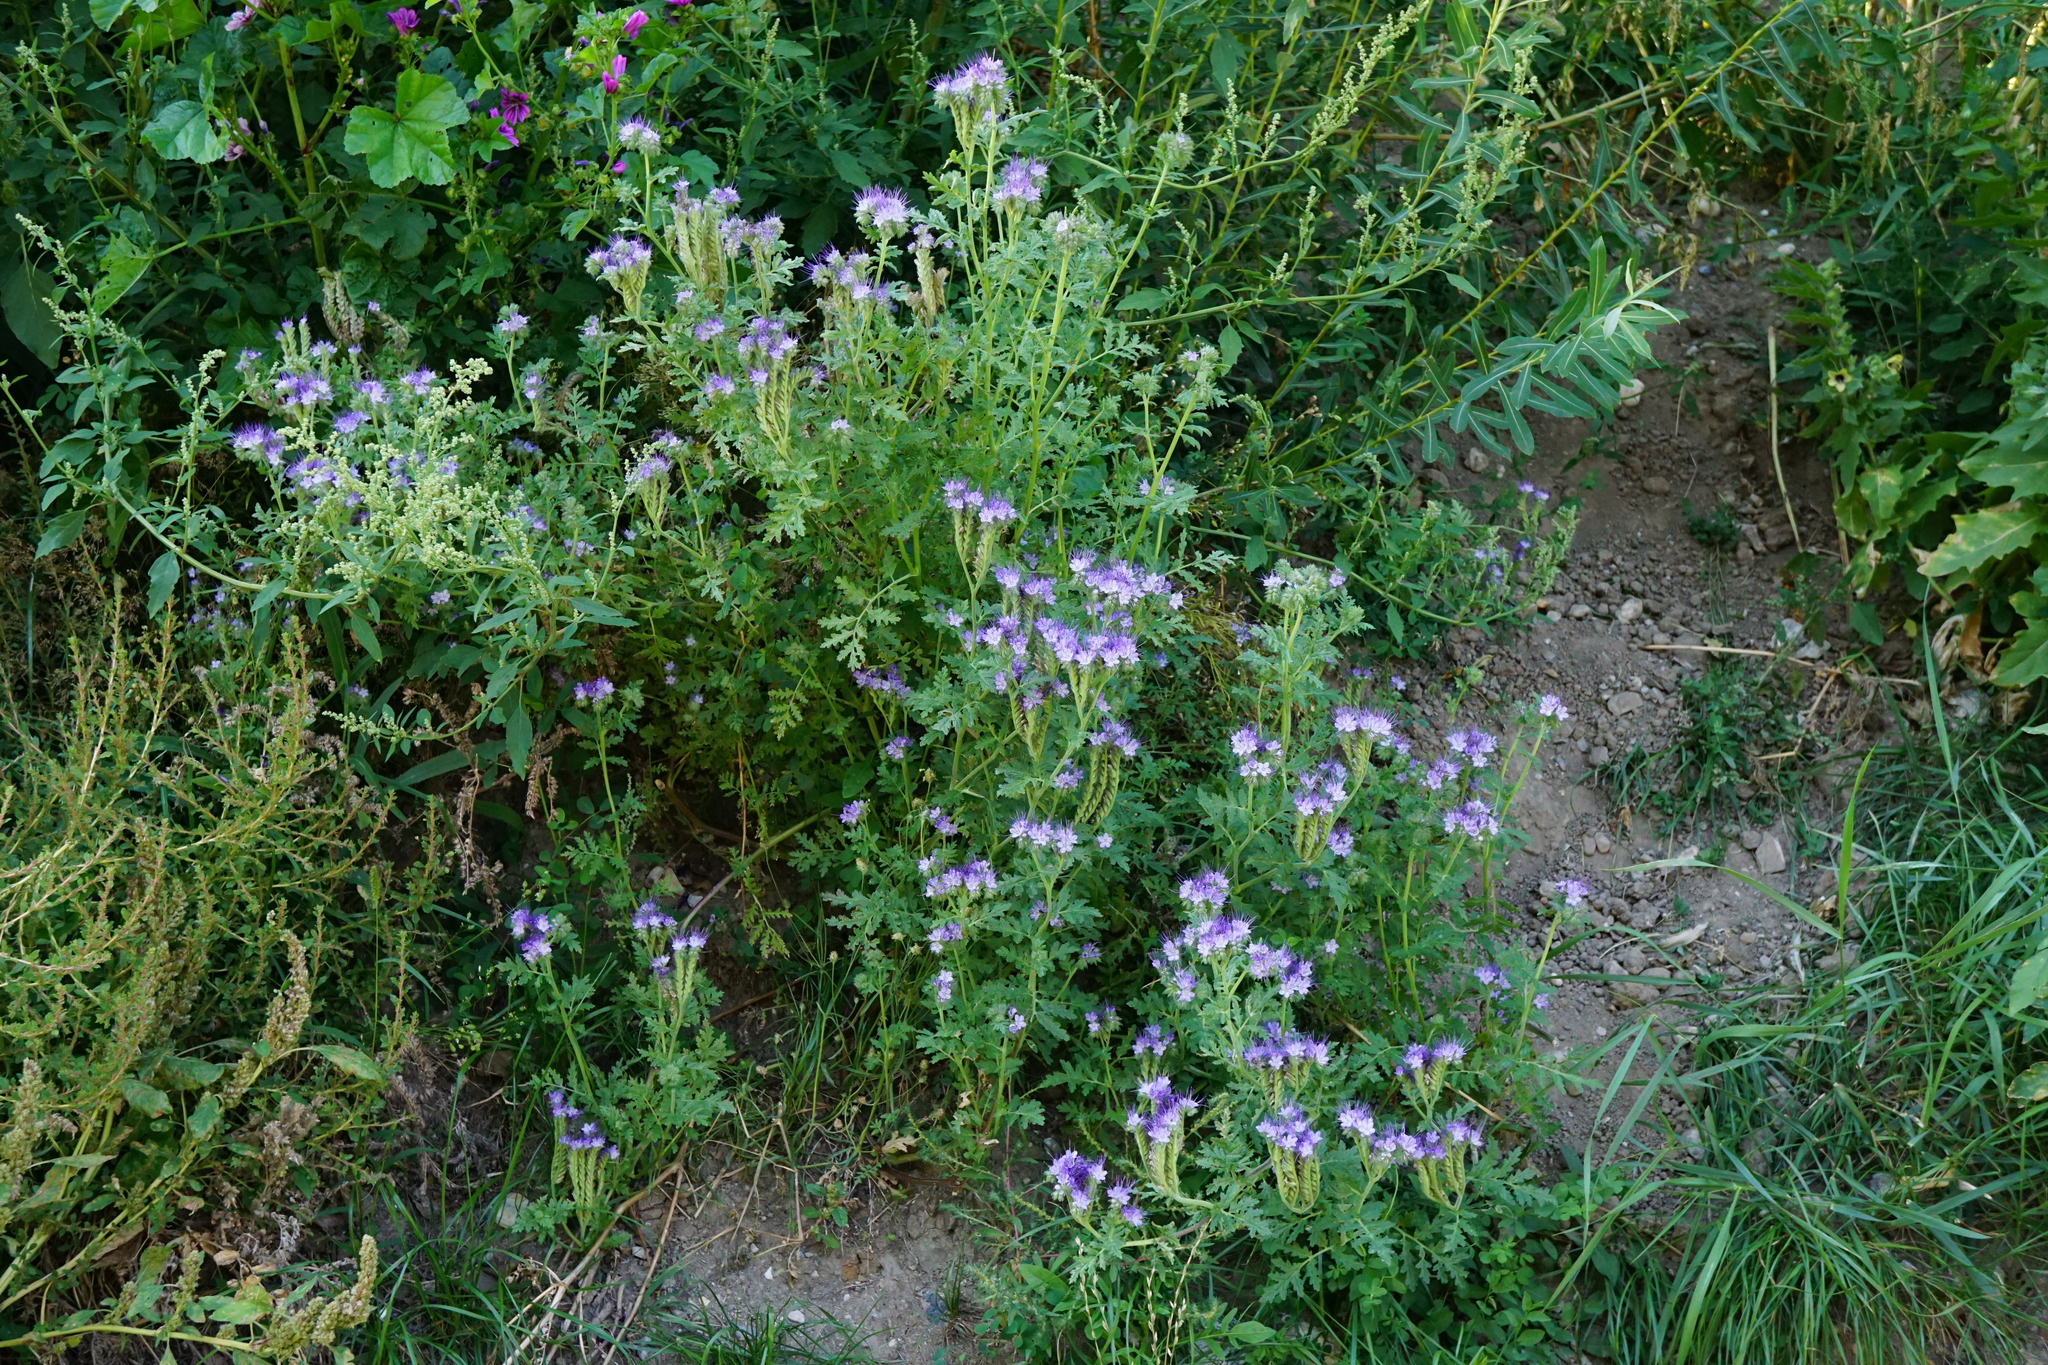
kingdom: Plantae
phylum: Tracheophyta
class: Magnoliopsida
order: Boraginales
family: Hydrophyllaceae
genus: Phacelia
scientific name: Phacelia tanacetifolia
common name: Phacelia
